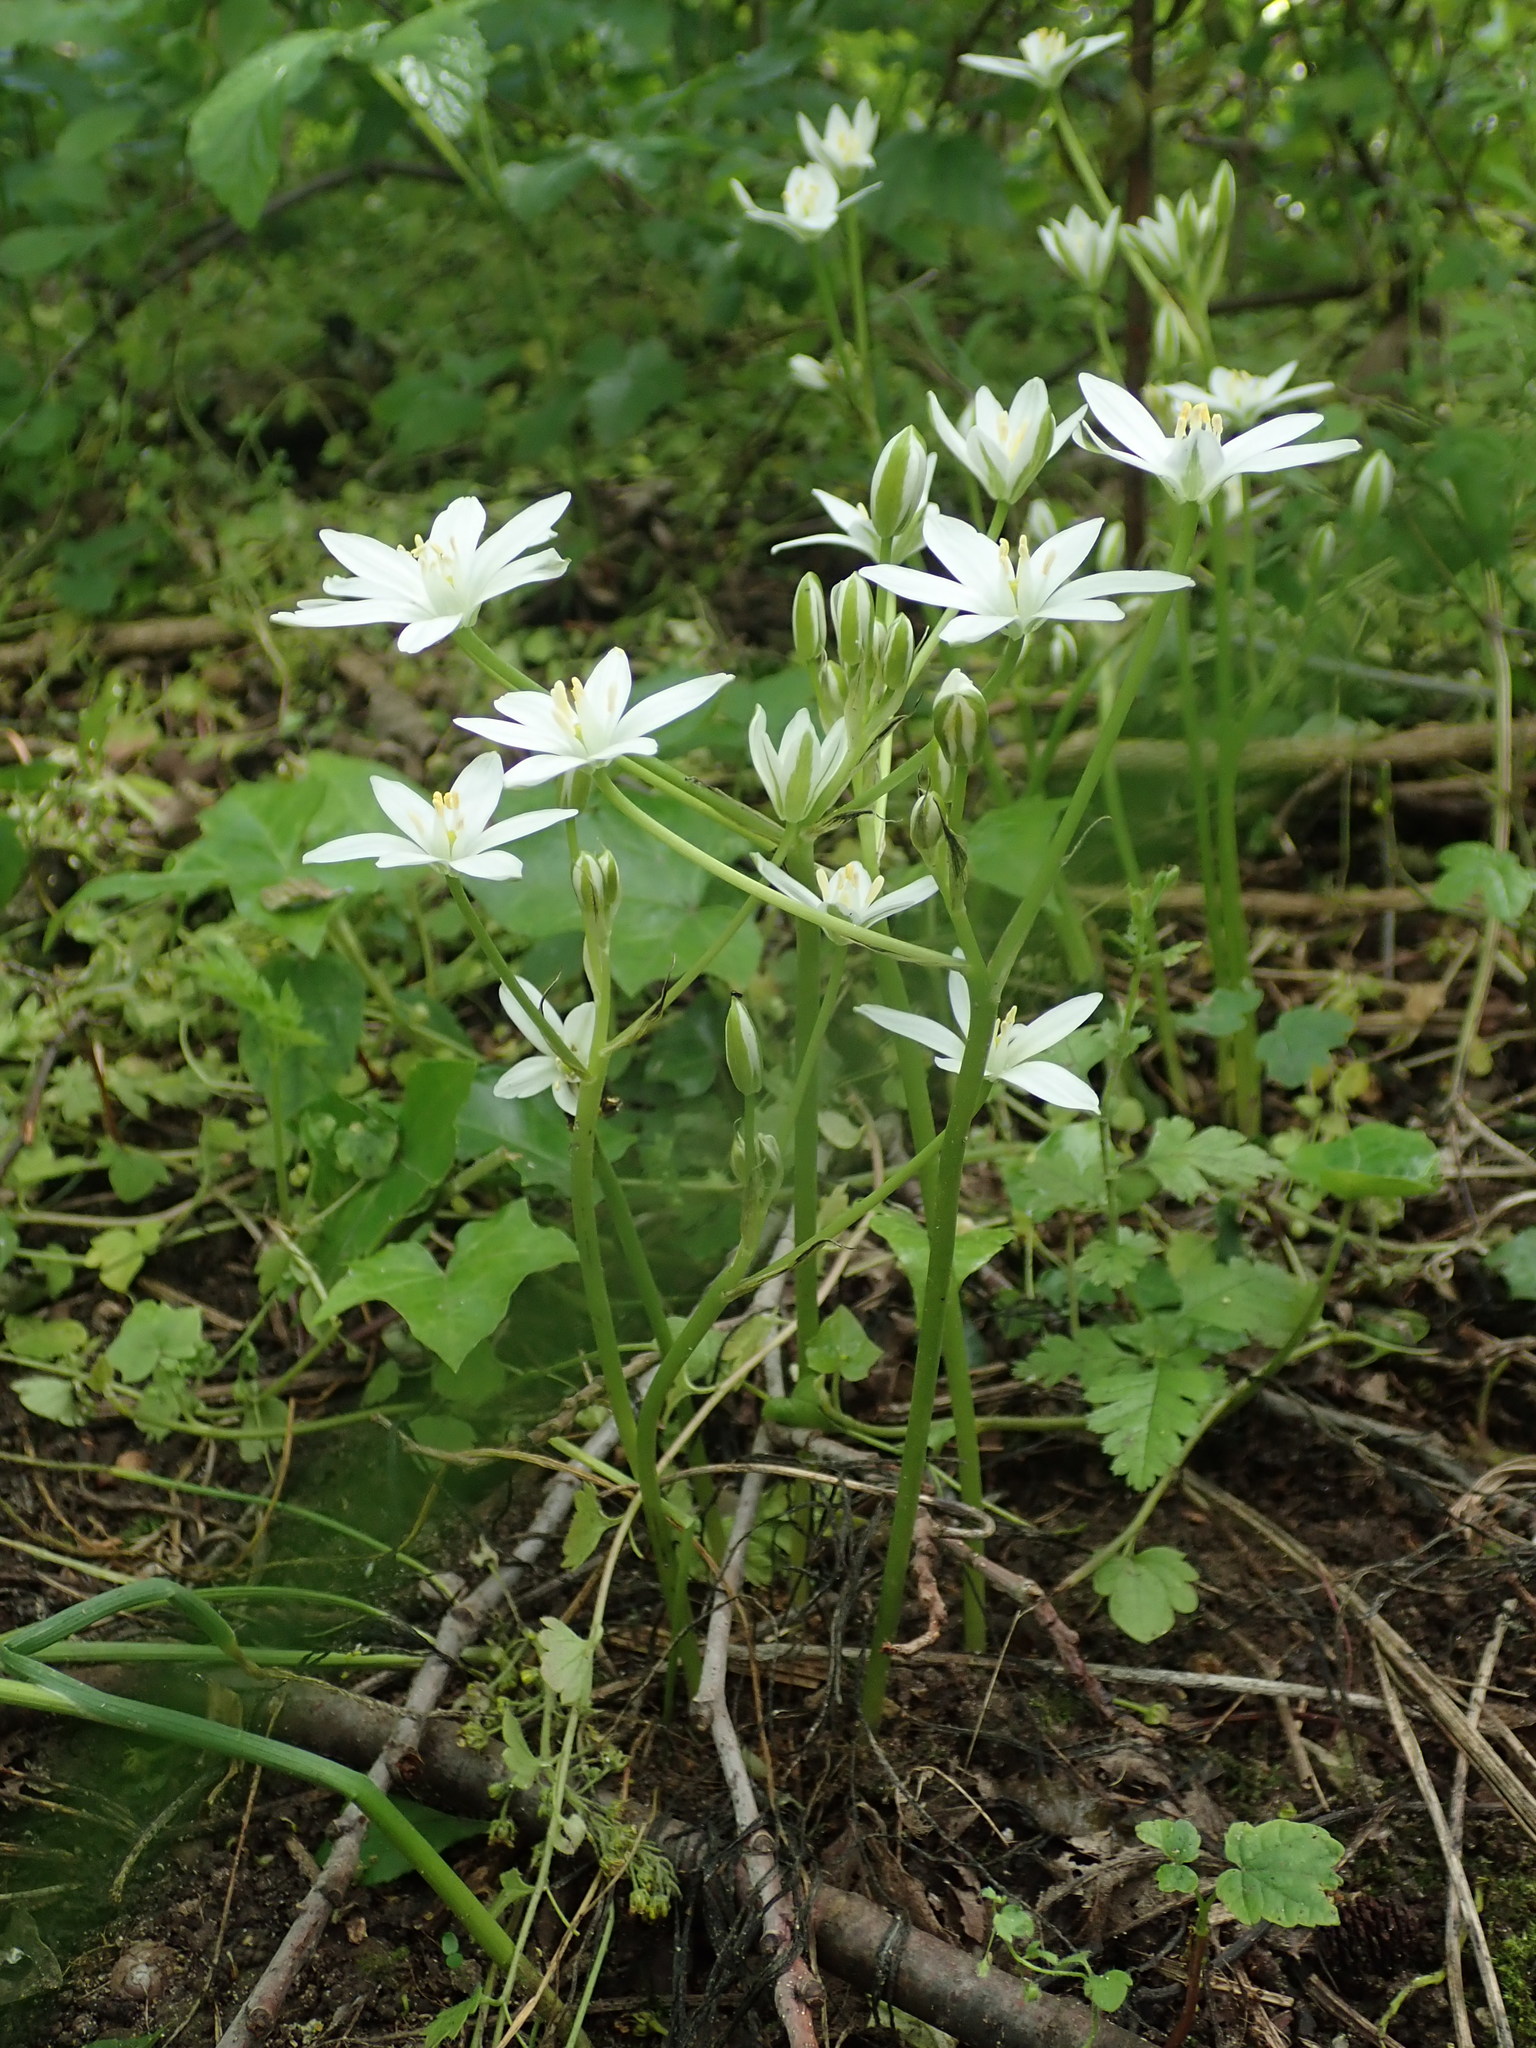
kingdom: Plantae
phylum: Tracheophyta
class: Liliopsida
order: Asparagales
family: Asparagaceae
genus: Ornithogalum
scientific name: Ornithogalum umbellatum
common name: Garden star-of-bethlehem
